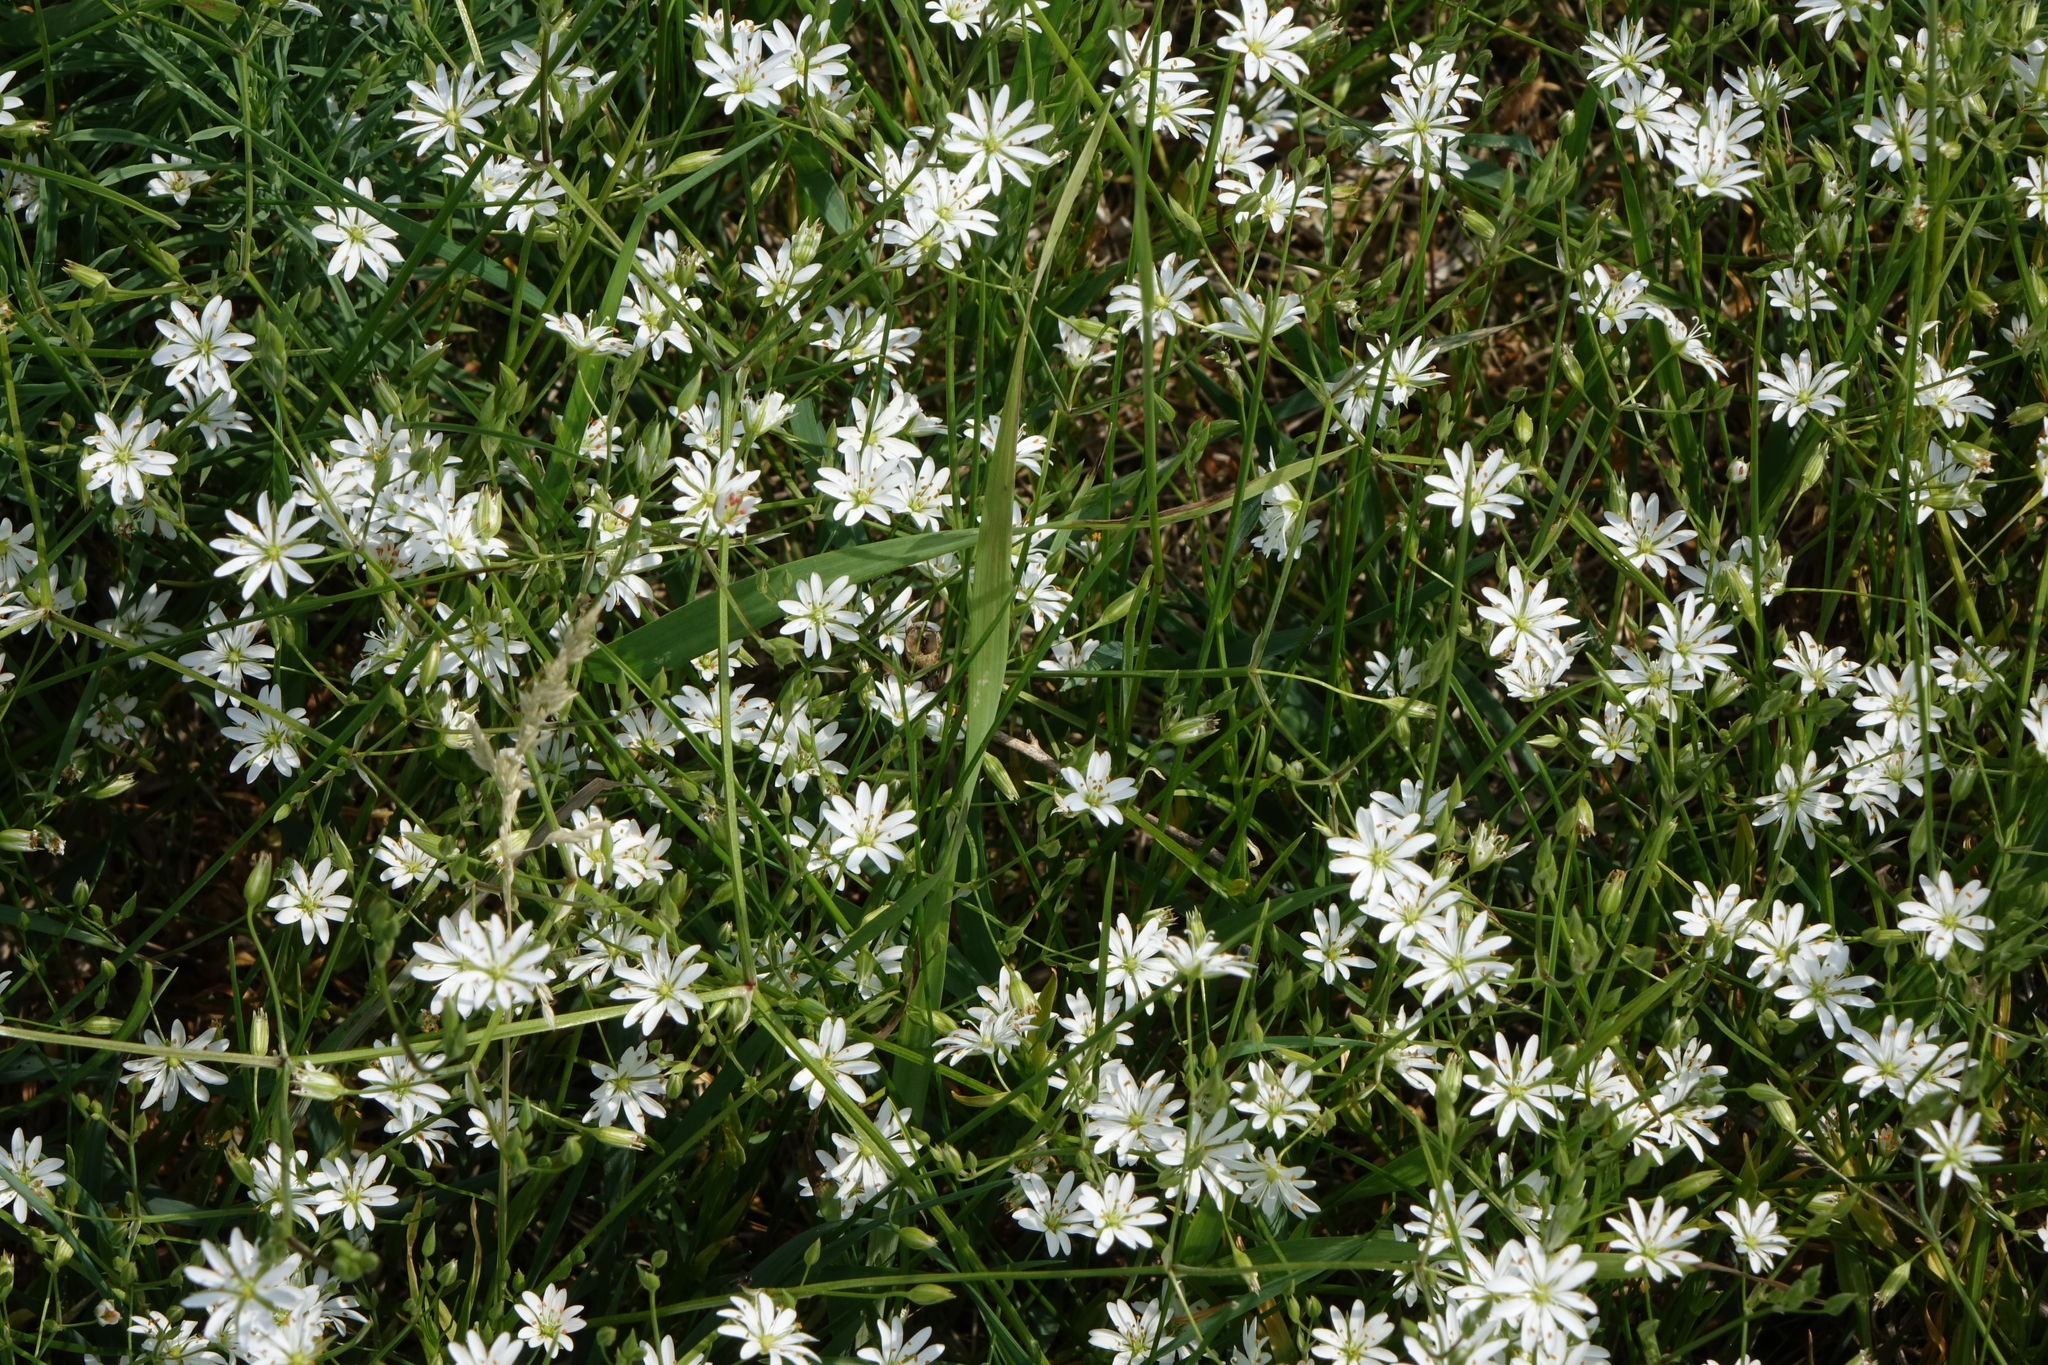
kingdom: Plantae
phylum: Tracheophyta
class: Magnoliopsida
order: Caryophyllales
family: Caryophyllaceae
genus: Stellaria
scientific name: Stellaria graminea
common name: Grass-like starwort
